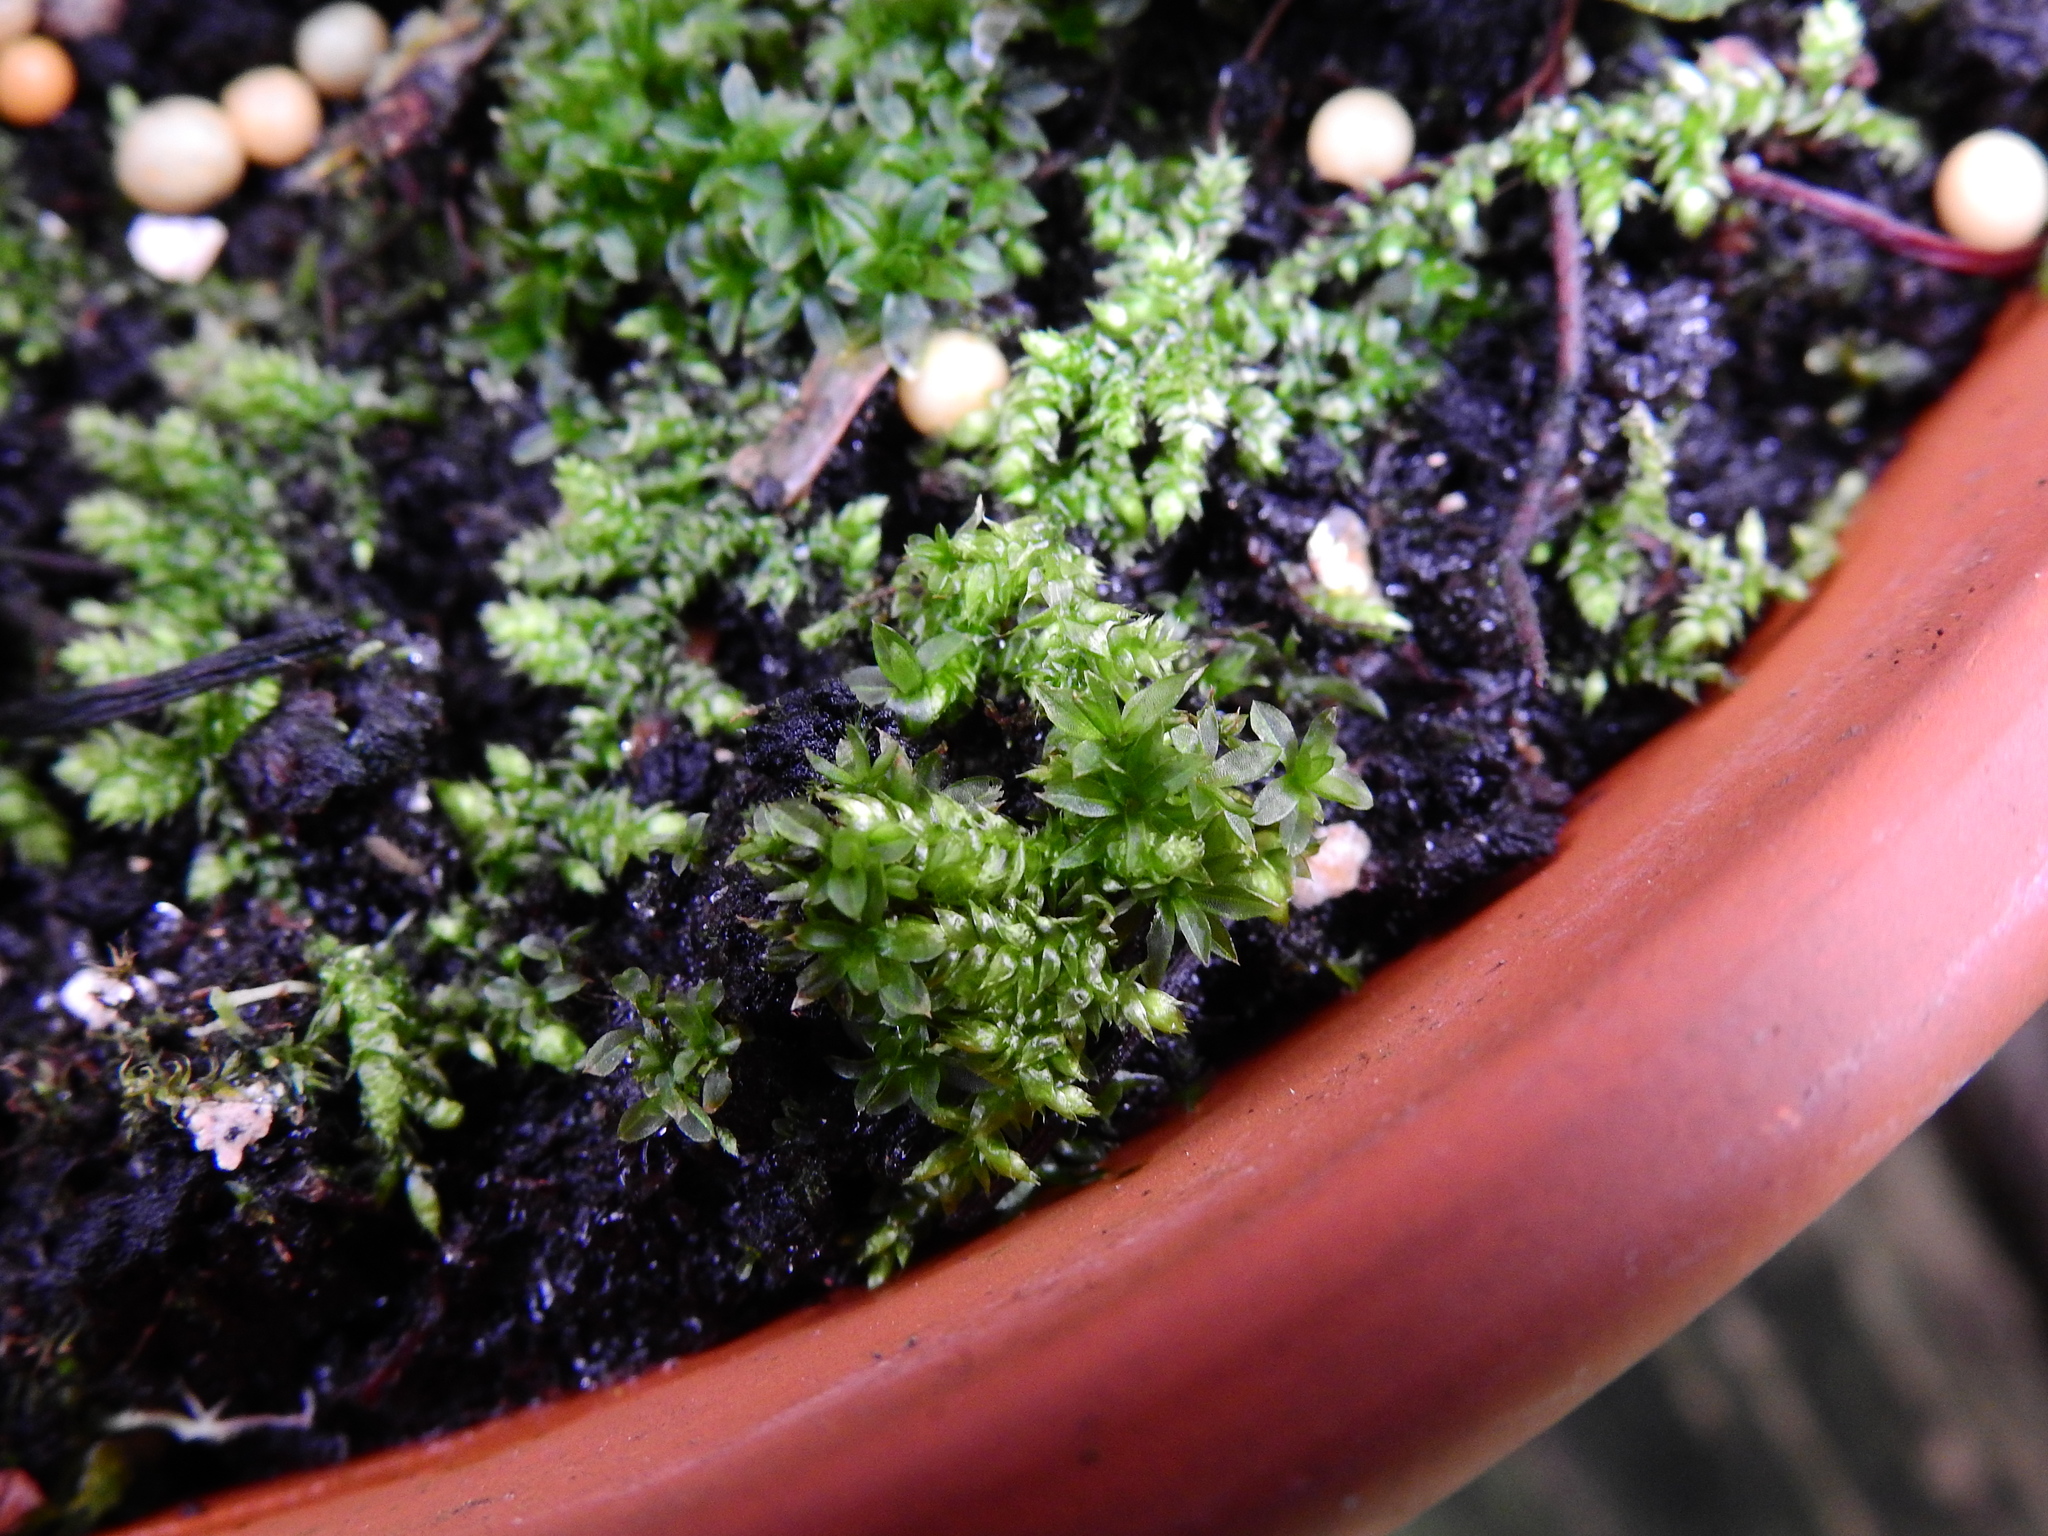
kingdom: Plantae
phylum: Bryophyta
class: Bryopsida
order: Hypnales
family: Brachytheciaceae
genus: Rhynchostegium
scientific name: Rhynchostegium confertum
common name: Clustered feather-moss
